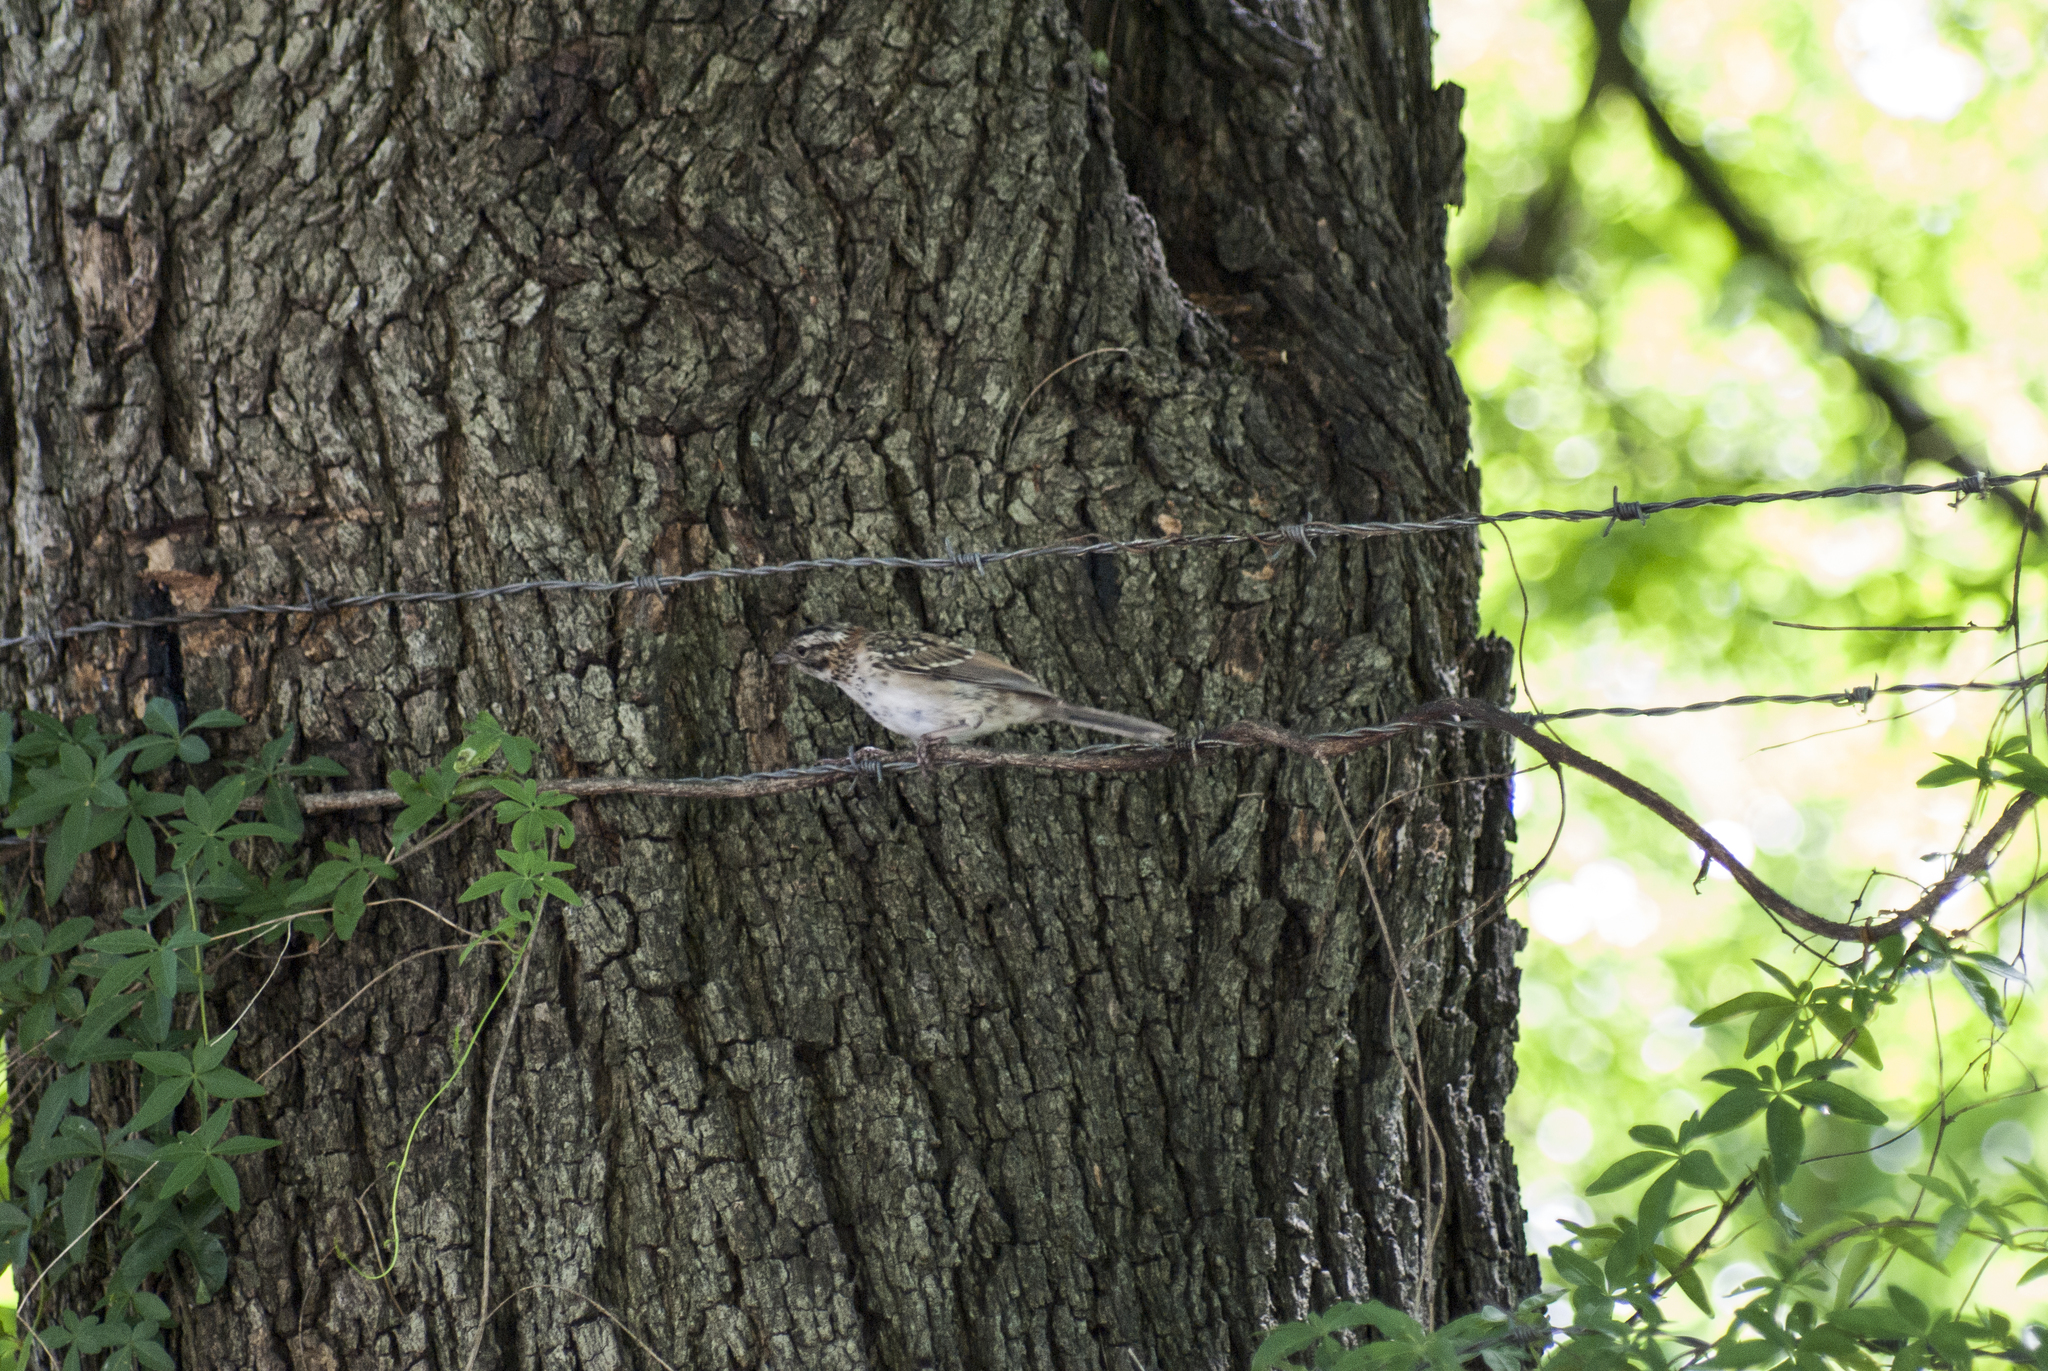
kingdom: Animalia
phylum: Chordata
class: Aves
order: Passeriformes
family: Passerellidae
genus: Zonotrichia
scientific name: Zonotrichia capensis
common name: Rufous-collared sparrow
